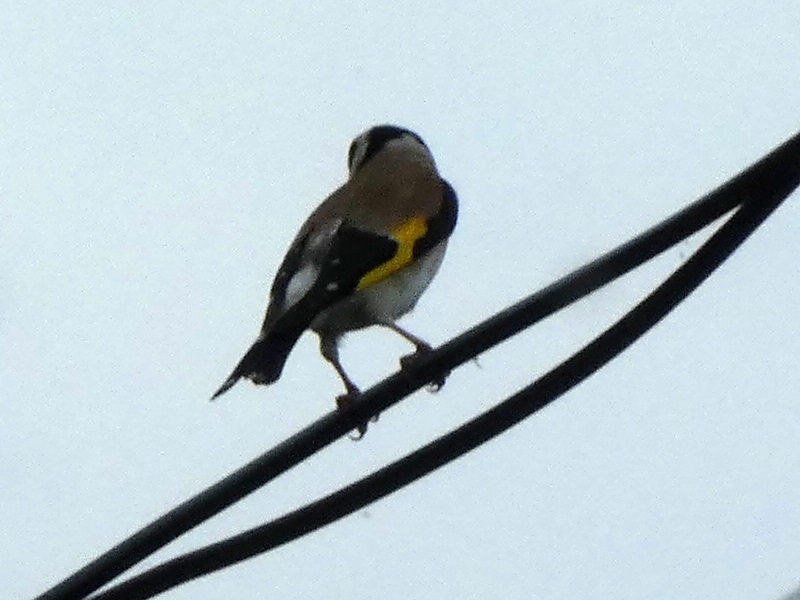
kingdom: Animalia
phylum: Chordata
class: Aves
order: Passeriformes
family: Fringillidae
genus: Carduelis
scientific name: Carduelis carduelis
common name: European goldfinch
